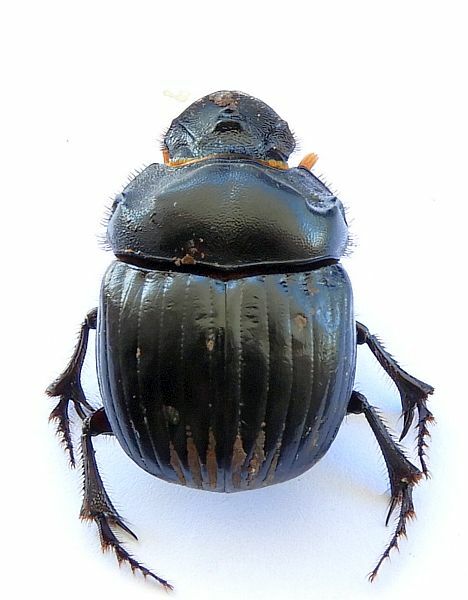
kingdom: Animalia
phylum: Arthropoda
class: Insecta
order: Coleoptera
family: Scarabaeidae
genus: Dichotomius
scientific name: Dichotomius colonicus
